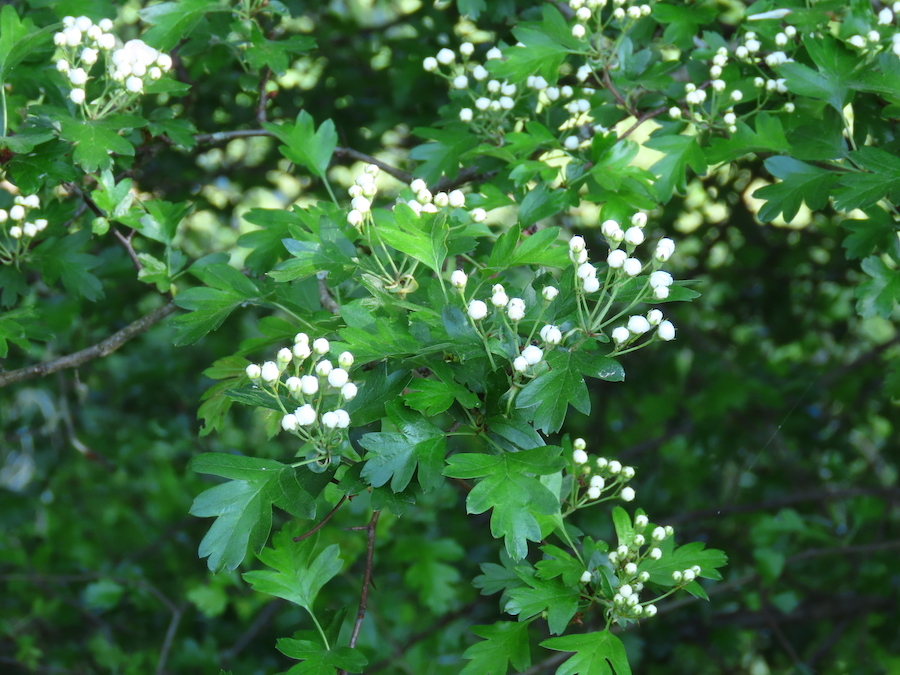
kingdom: Plantae
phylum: Tracheophyta
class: Magnoliopsida
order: Rosales
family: Rosaceae
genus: Crataegus
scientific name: Crataegus monogyna
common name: Hawthorn
